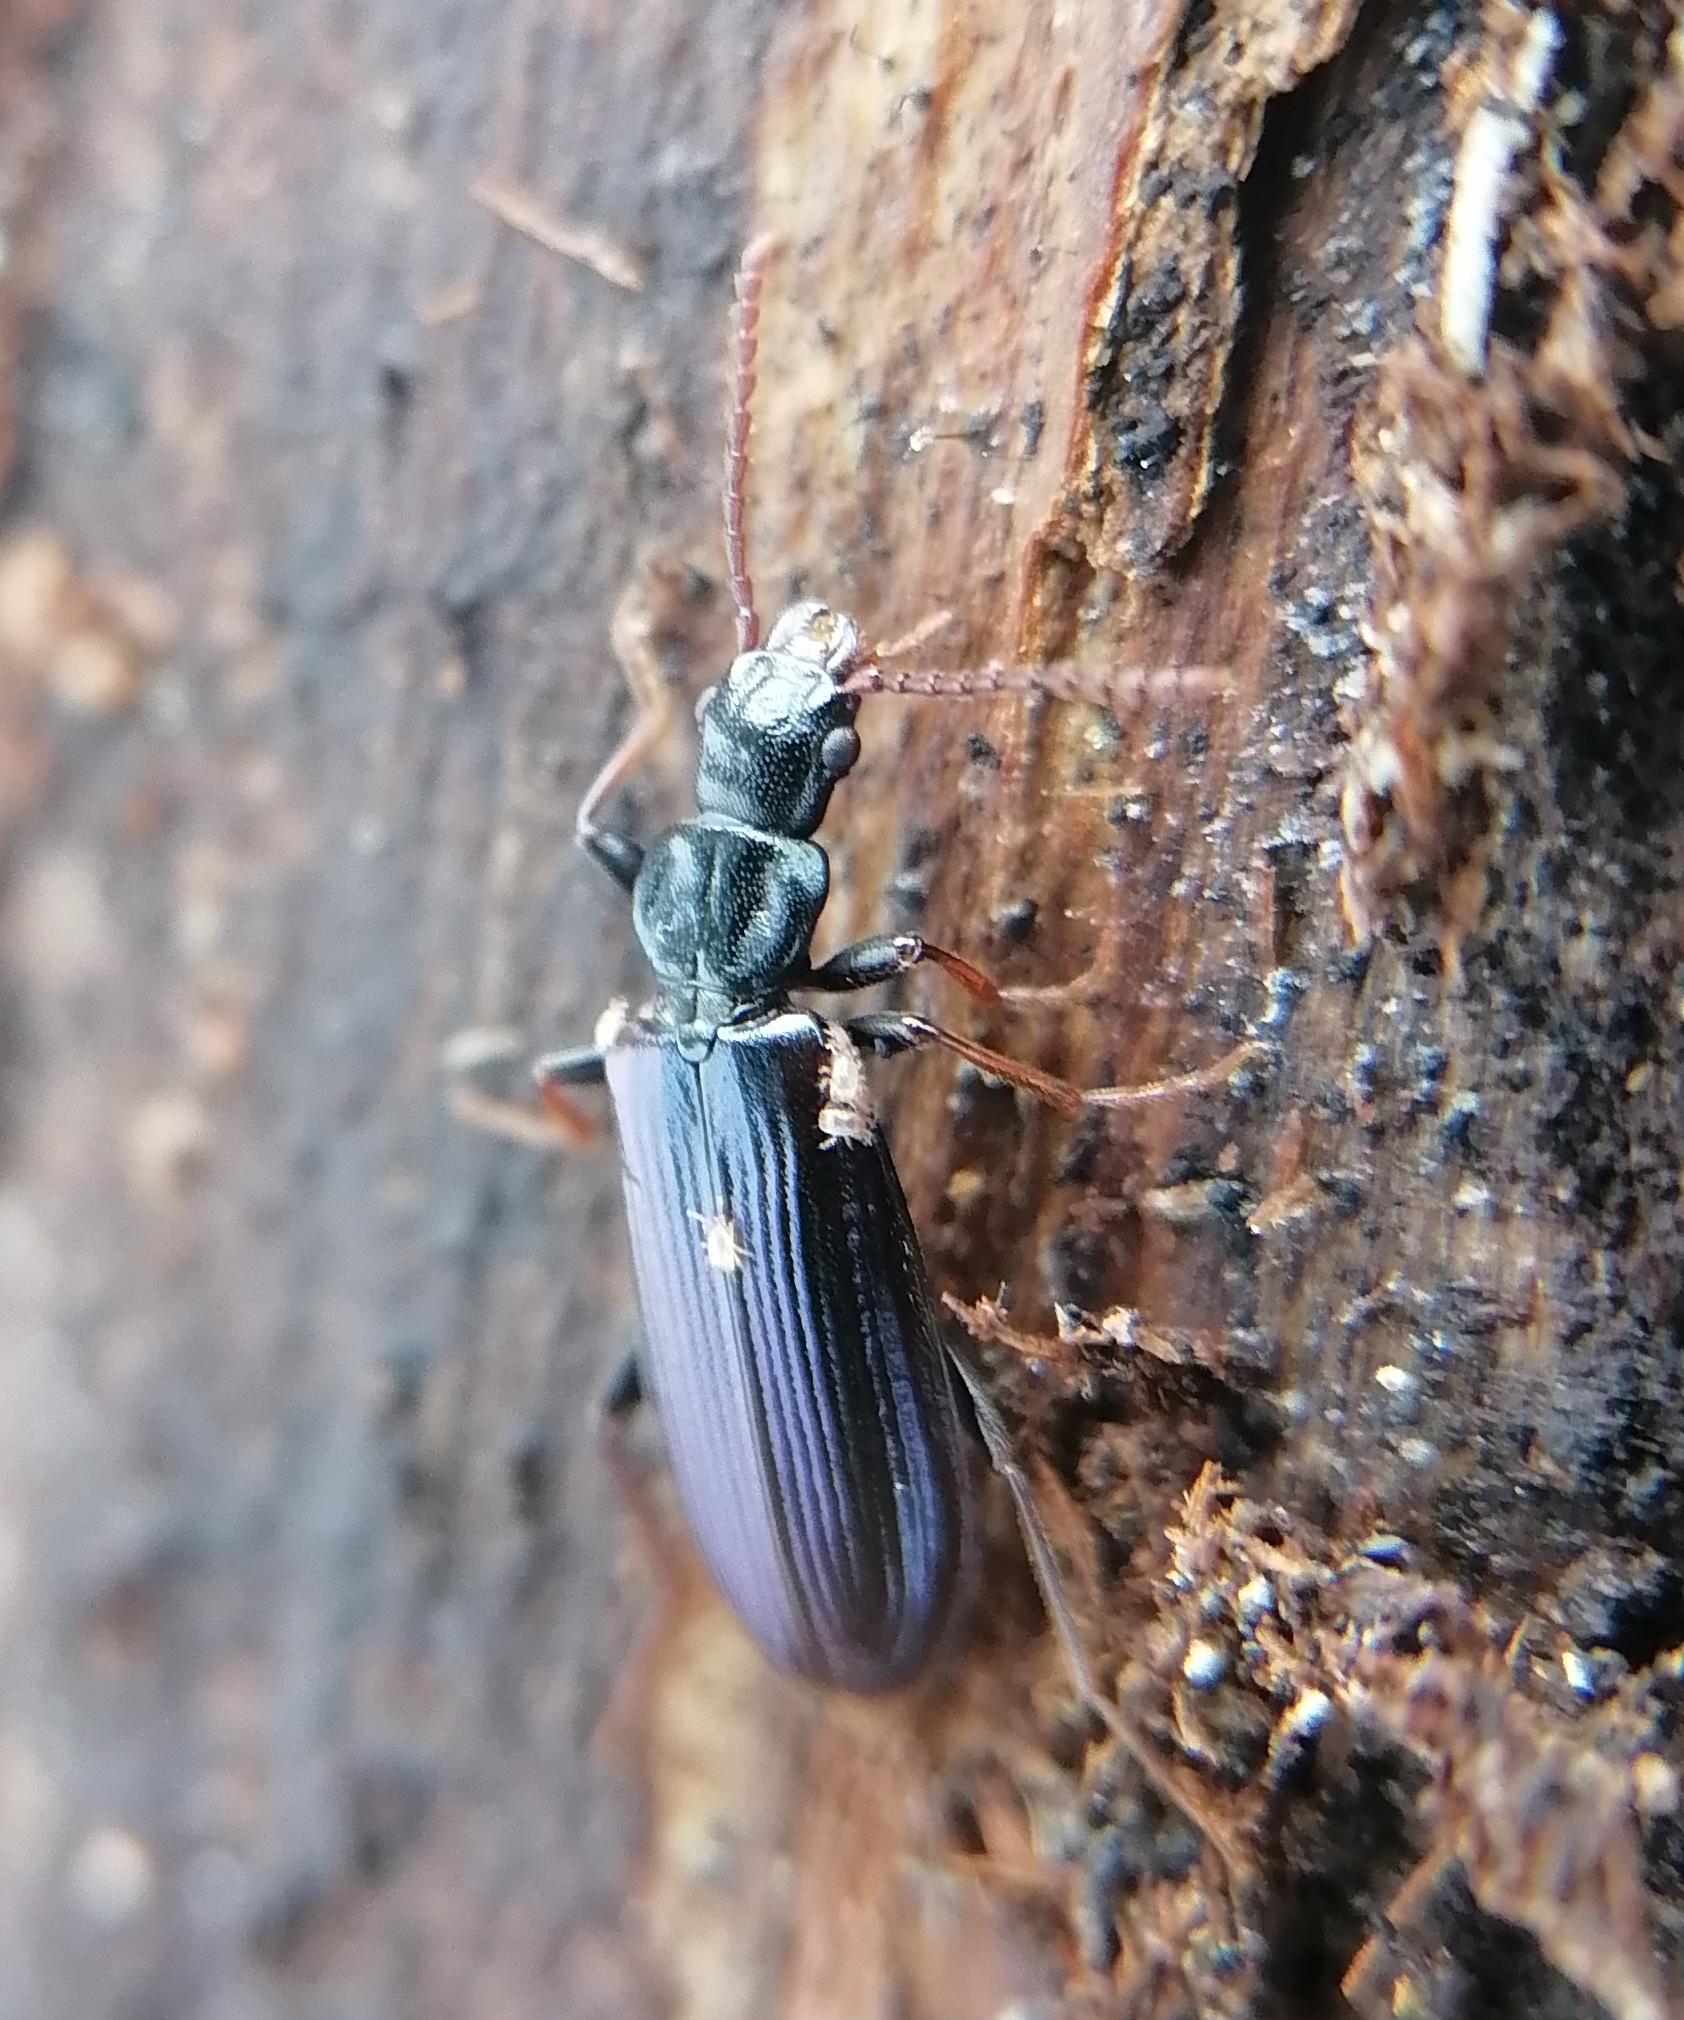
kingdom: Animalia
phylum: Arthropoda
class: Insecta
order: Coleoptera
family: Pythidae
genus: Pytho
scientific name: Pytho depressus
